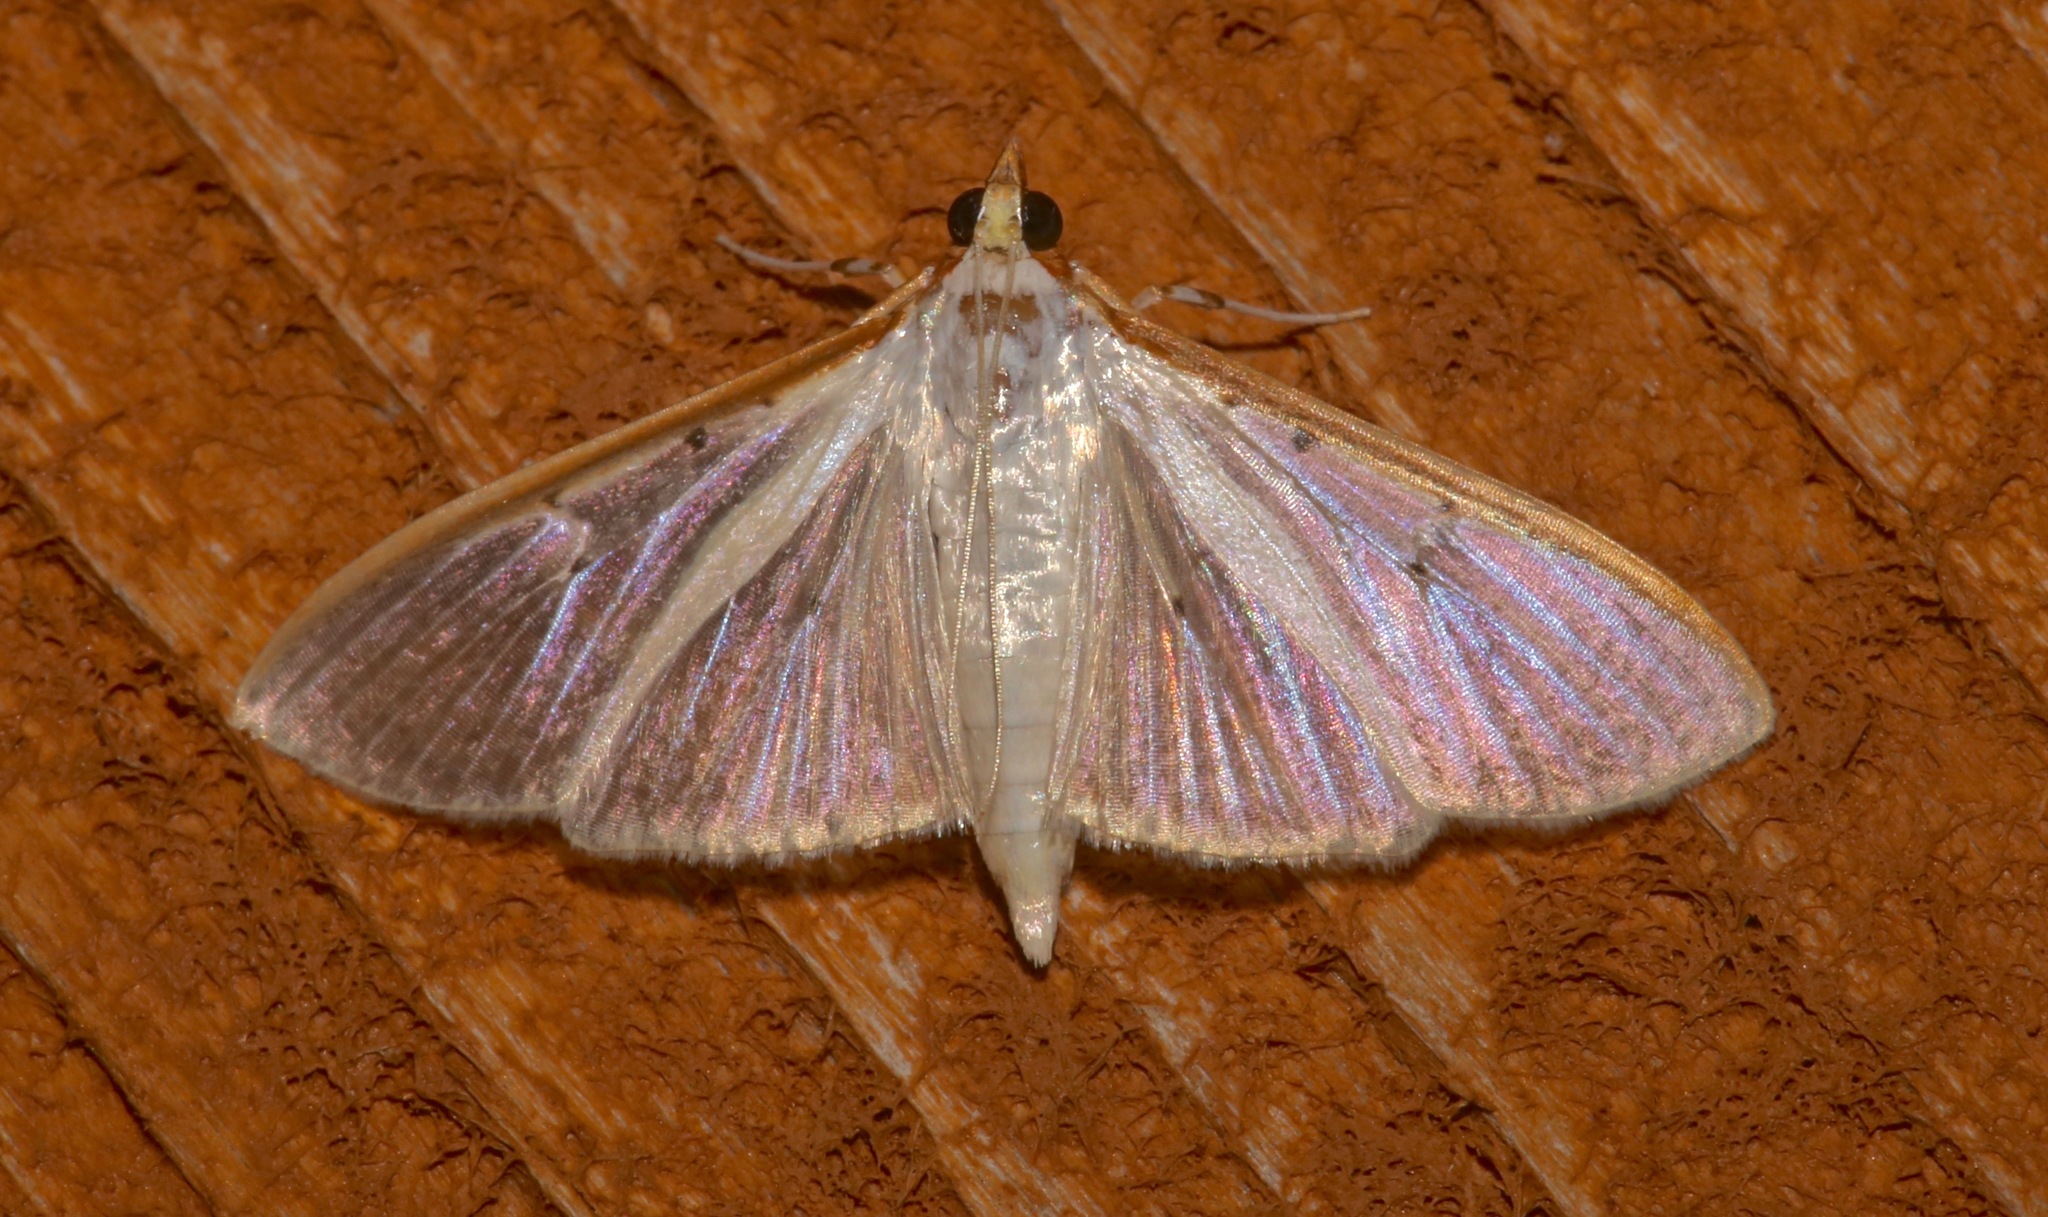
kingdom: Animalia
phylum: Arthropoda
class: Insecta
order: Lepidoptera
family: Crambidae
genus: Palpita
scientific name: Palpita quadristigmalis
